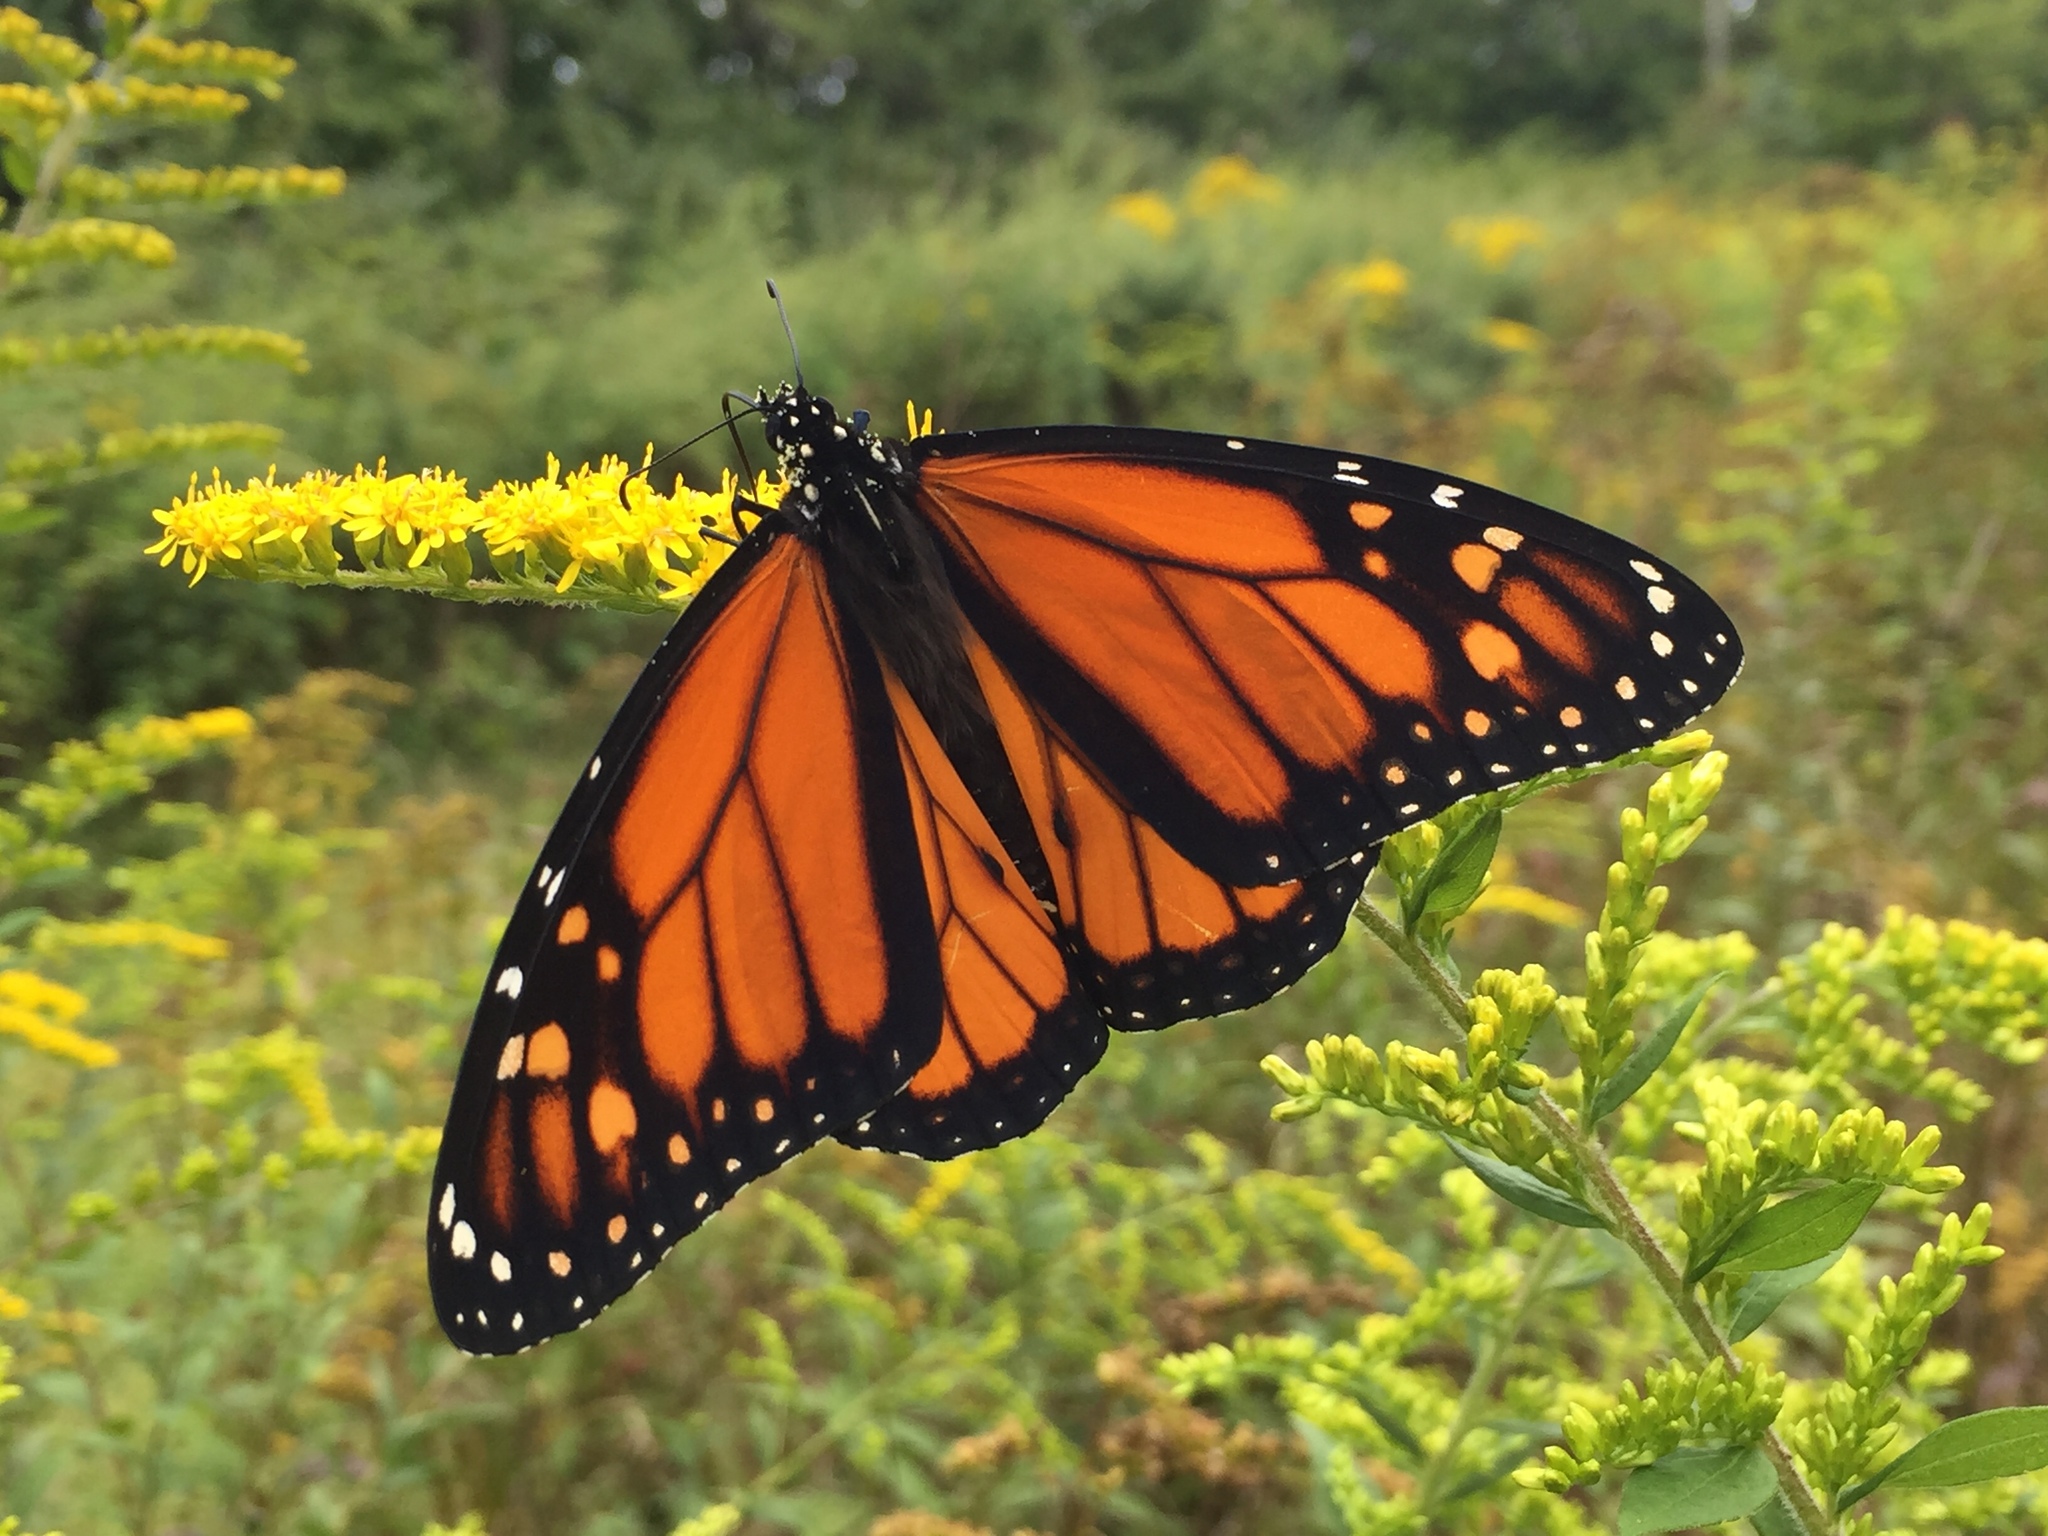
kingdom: Animalia
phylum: Arthropoda
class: Insecta
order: Lepidoptera
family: Nymphalidae
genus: Danaus
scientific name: Danaus plexippus
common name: Monarch
